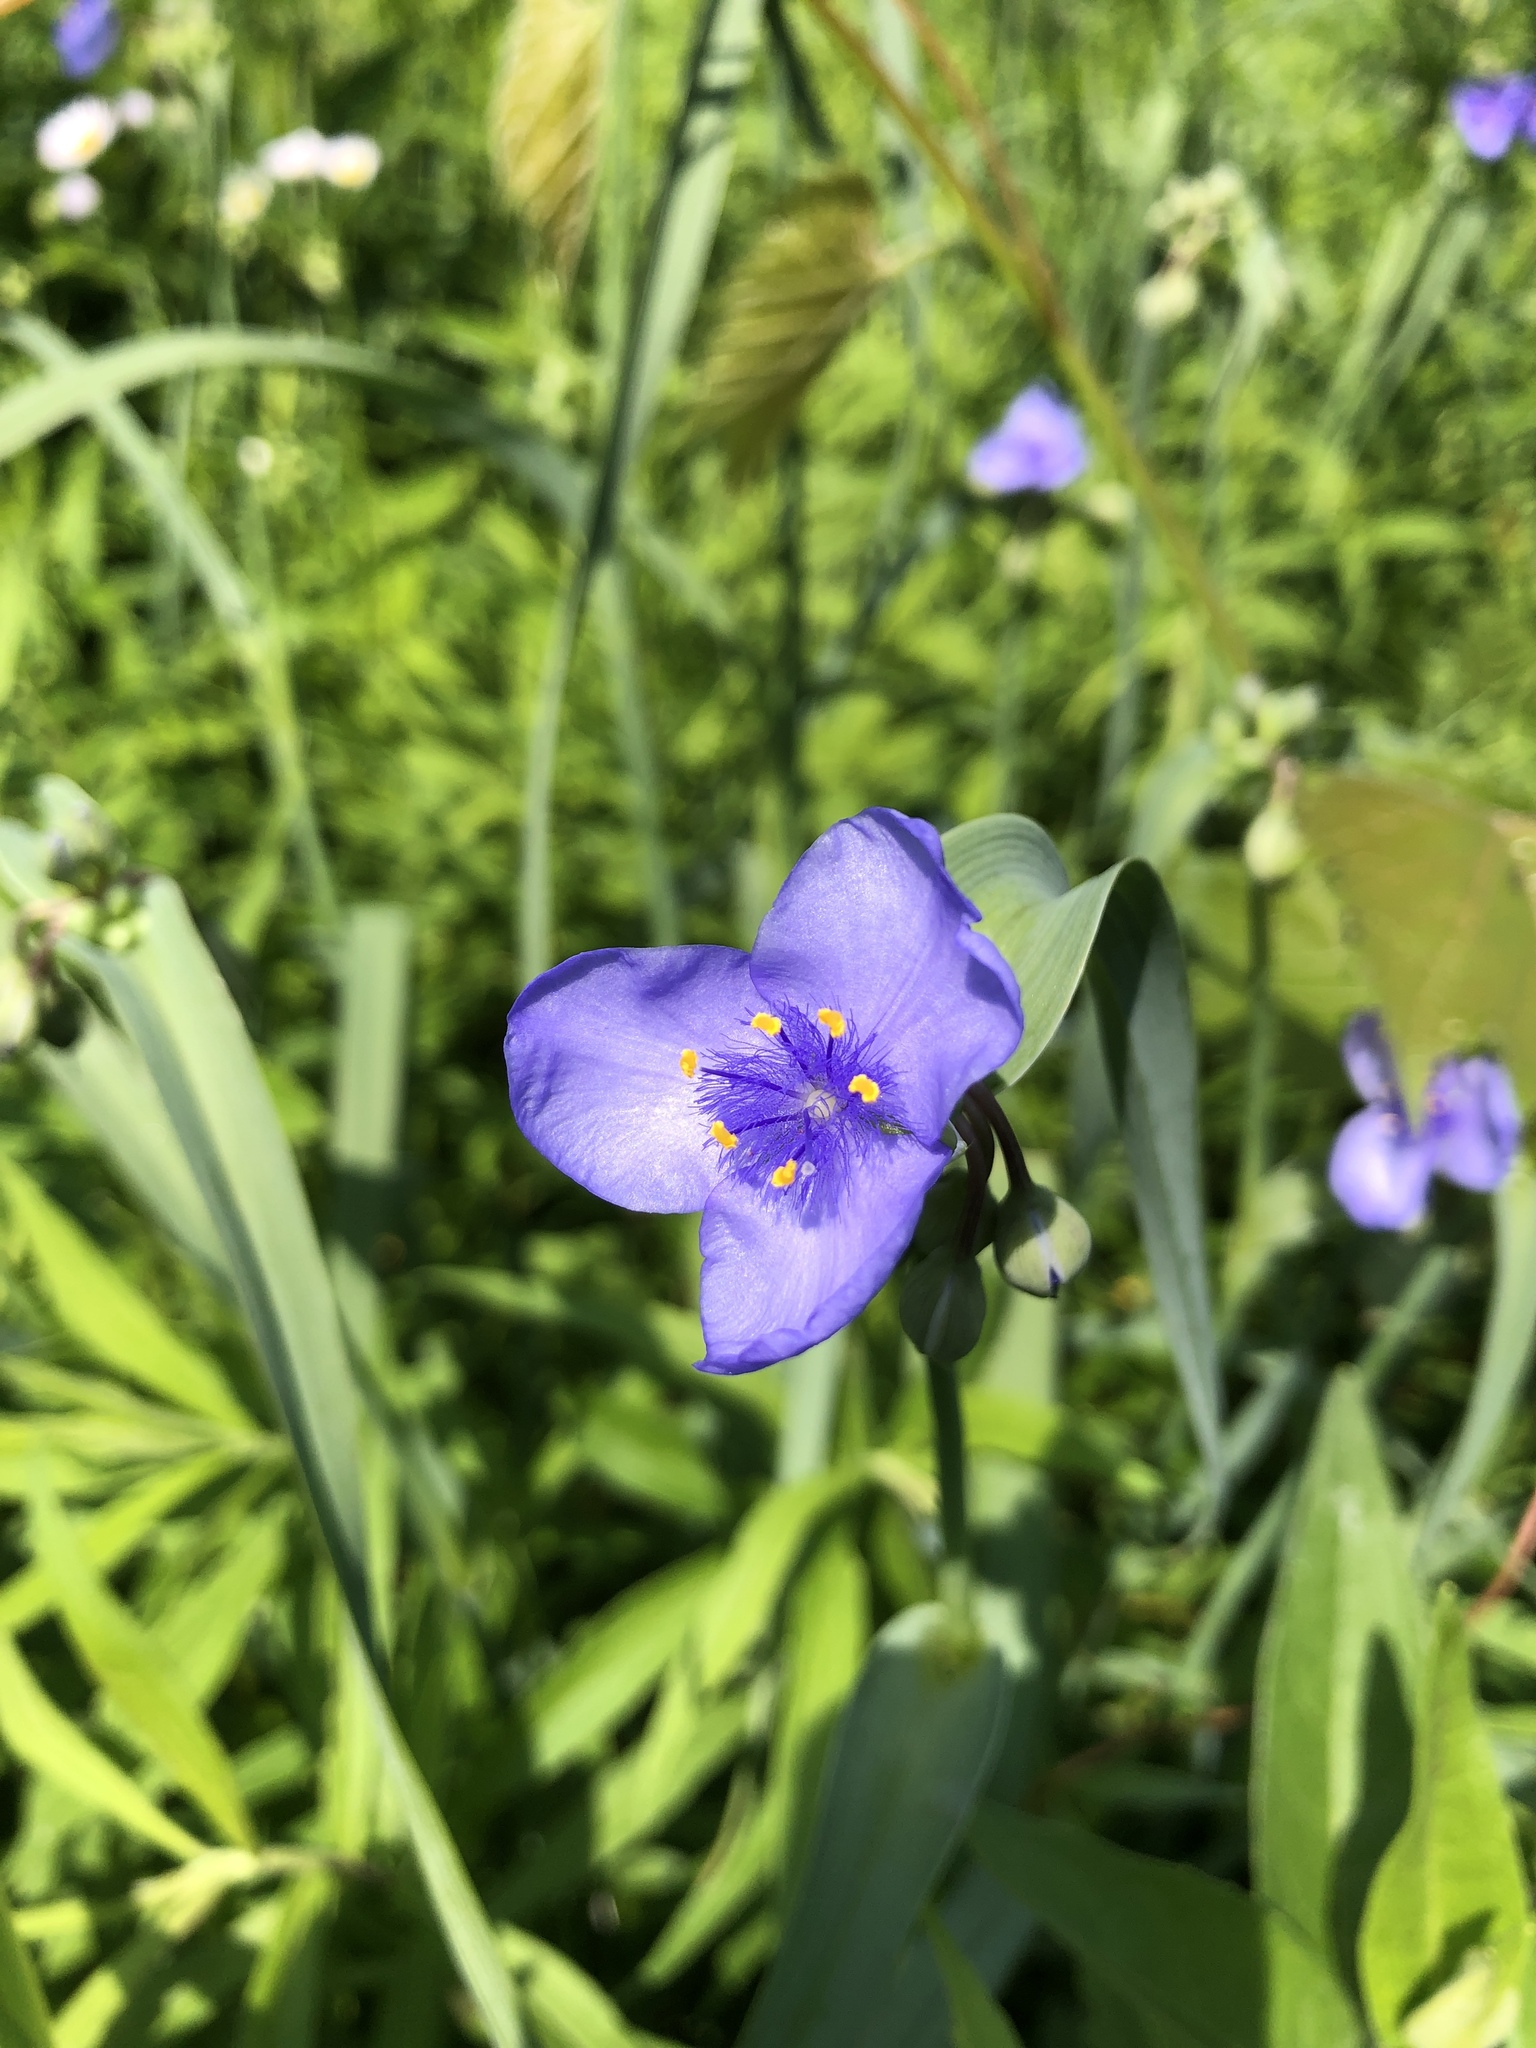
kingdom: Plantae
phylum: Tracheophyta
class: Liliopsida
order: Commelinales
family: Commelinaceae
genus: Tradescantia
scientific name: Tradescantia ohiensis
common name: Ohio spiderwort
